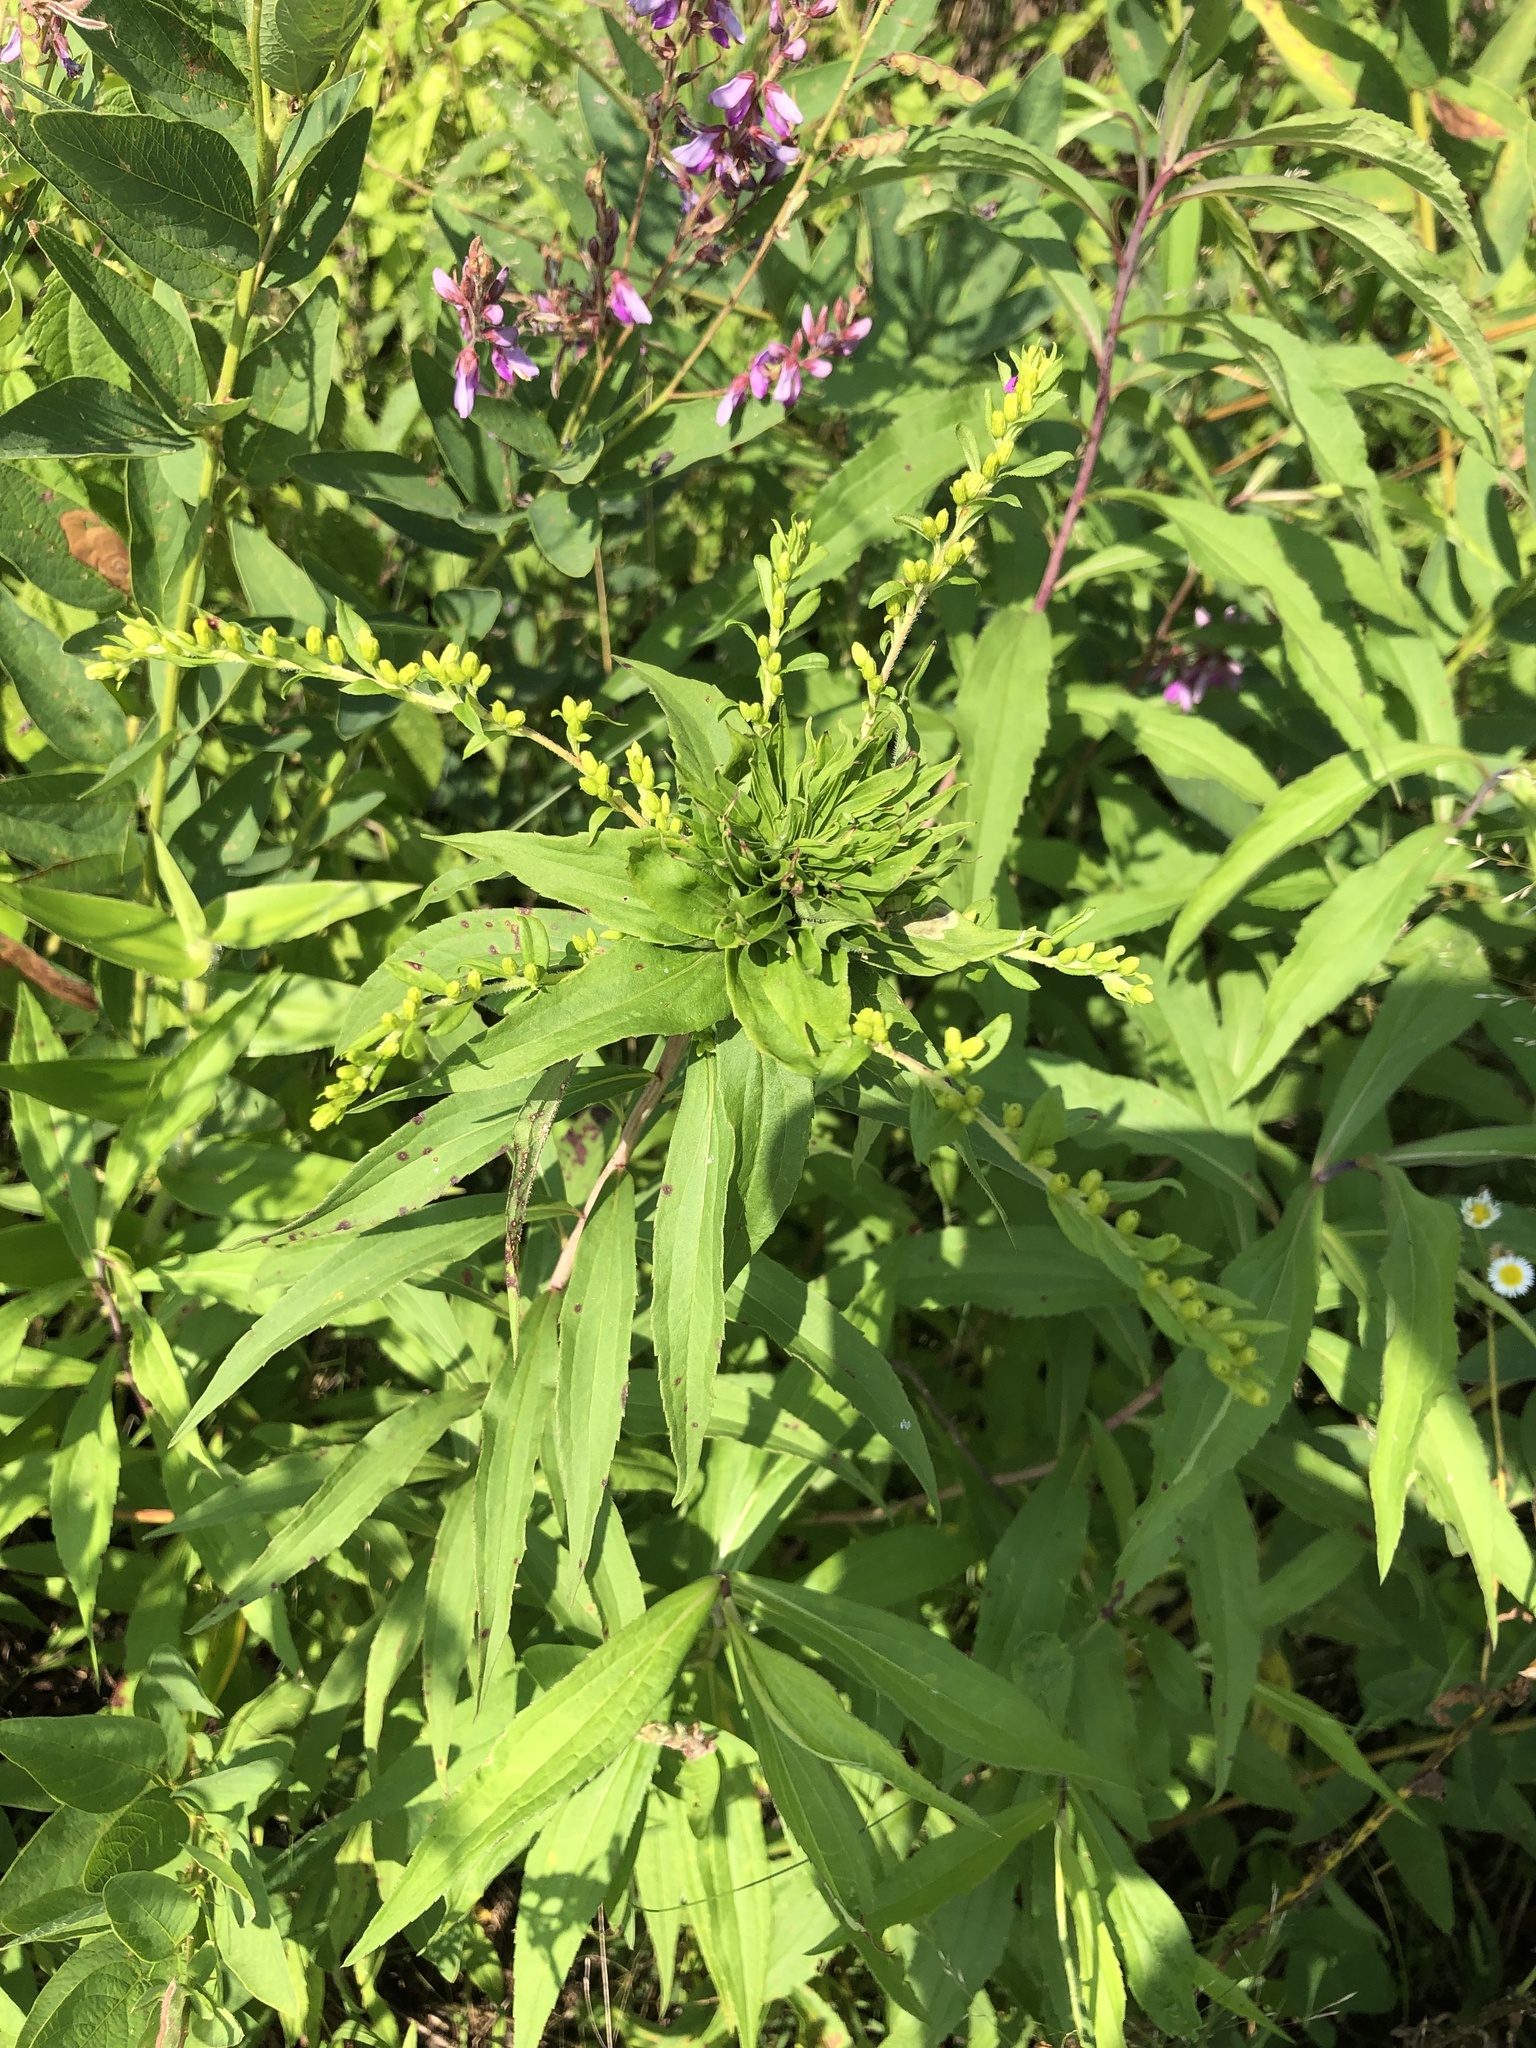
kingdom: Animalia
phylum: Arthropoda
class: Insecta
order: Diptera
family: Cecidomyiidae
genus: Rhopalomyia
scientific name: Rhopalomyia capitata
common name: Giant goldenrod bunch gall midge
